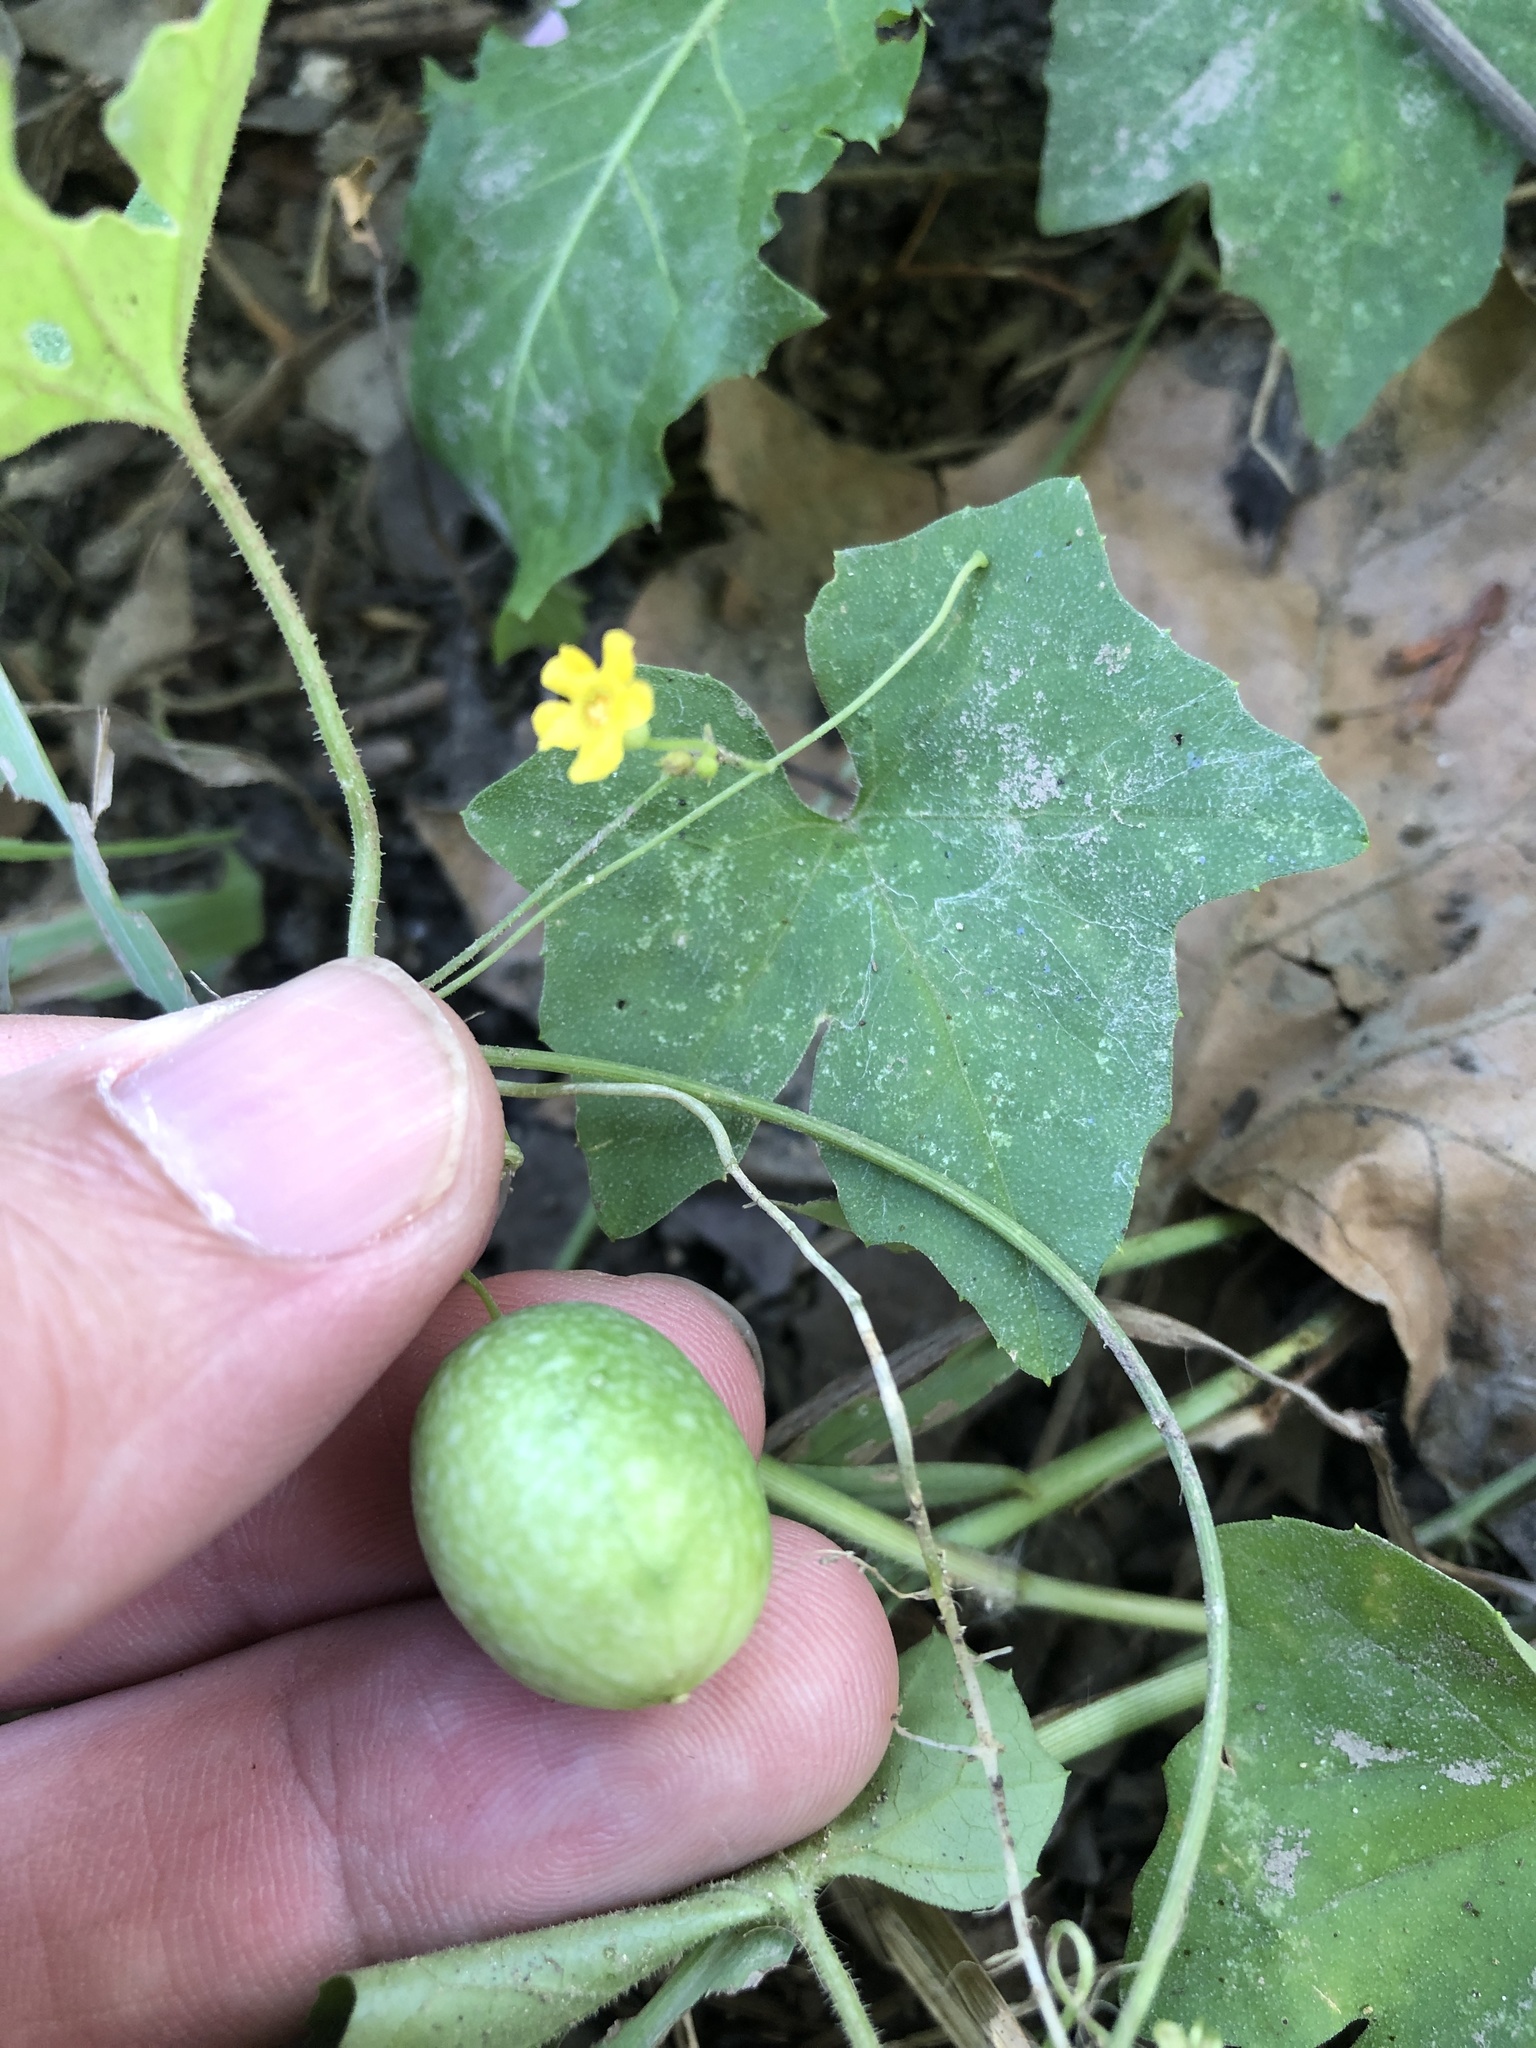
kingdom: Plantae
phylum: Tracheophyta
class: Magnoliopsida
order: Cucurbitales
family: Cucurbitaceae
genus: Melothria
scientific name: Melothria pendula
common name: Creeping-cucumber
